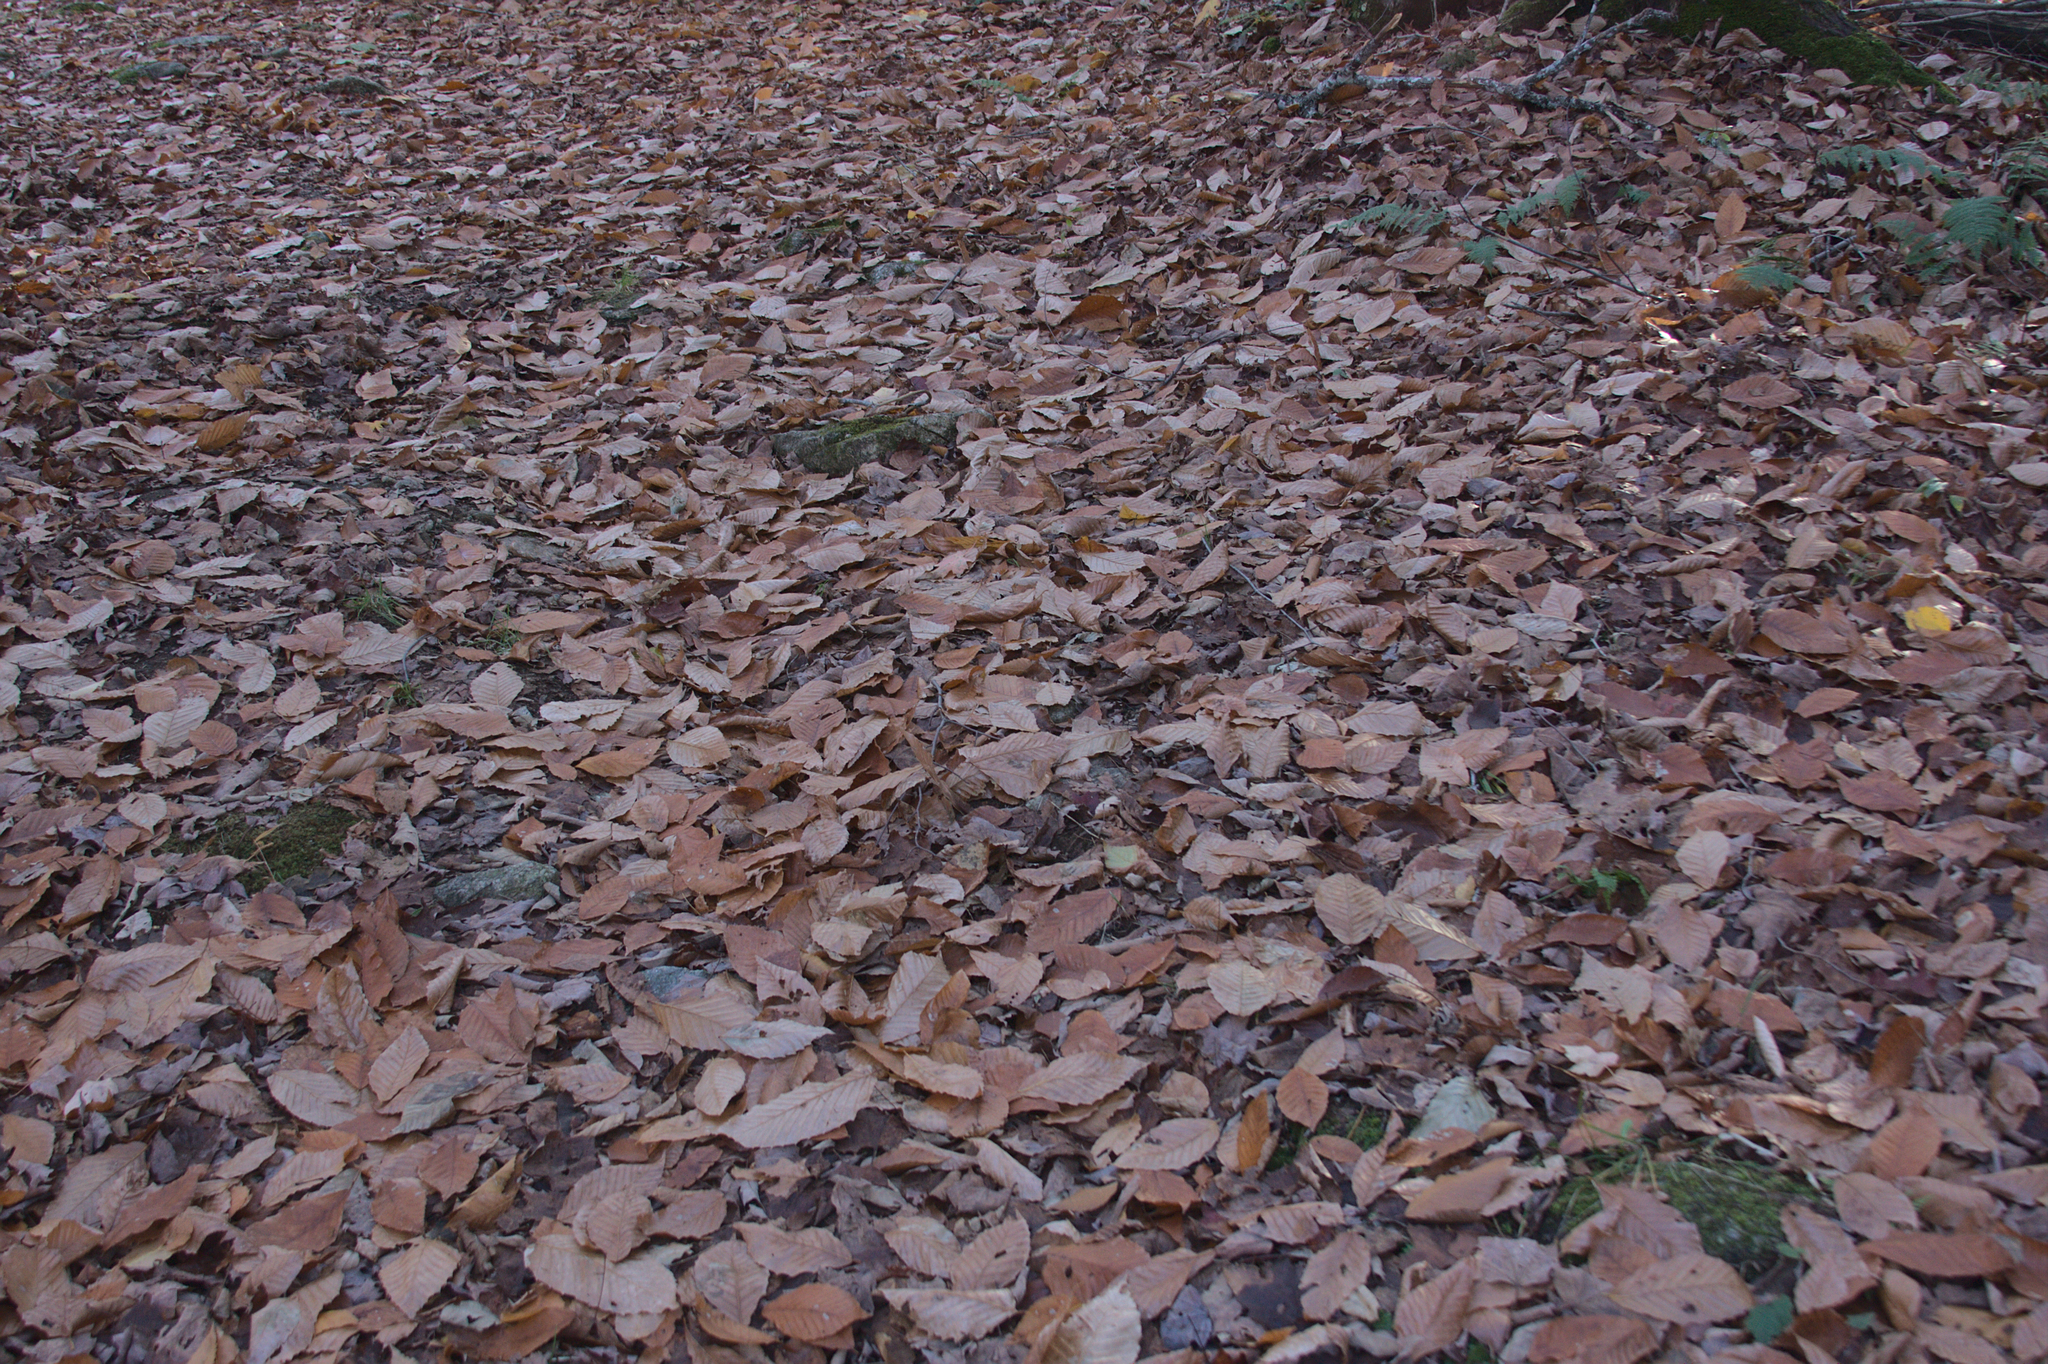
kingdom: Plantae
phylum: Tracheophyta
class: Magnoliopsida
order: Fagales
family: Fagaceae
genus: Fagus
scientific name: Fagus grandifolia
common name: American beech
